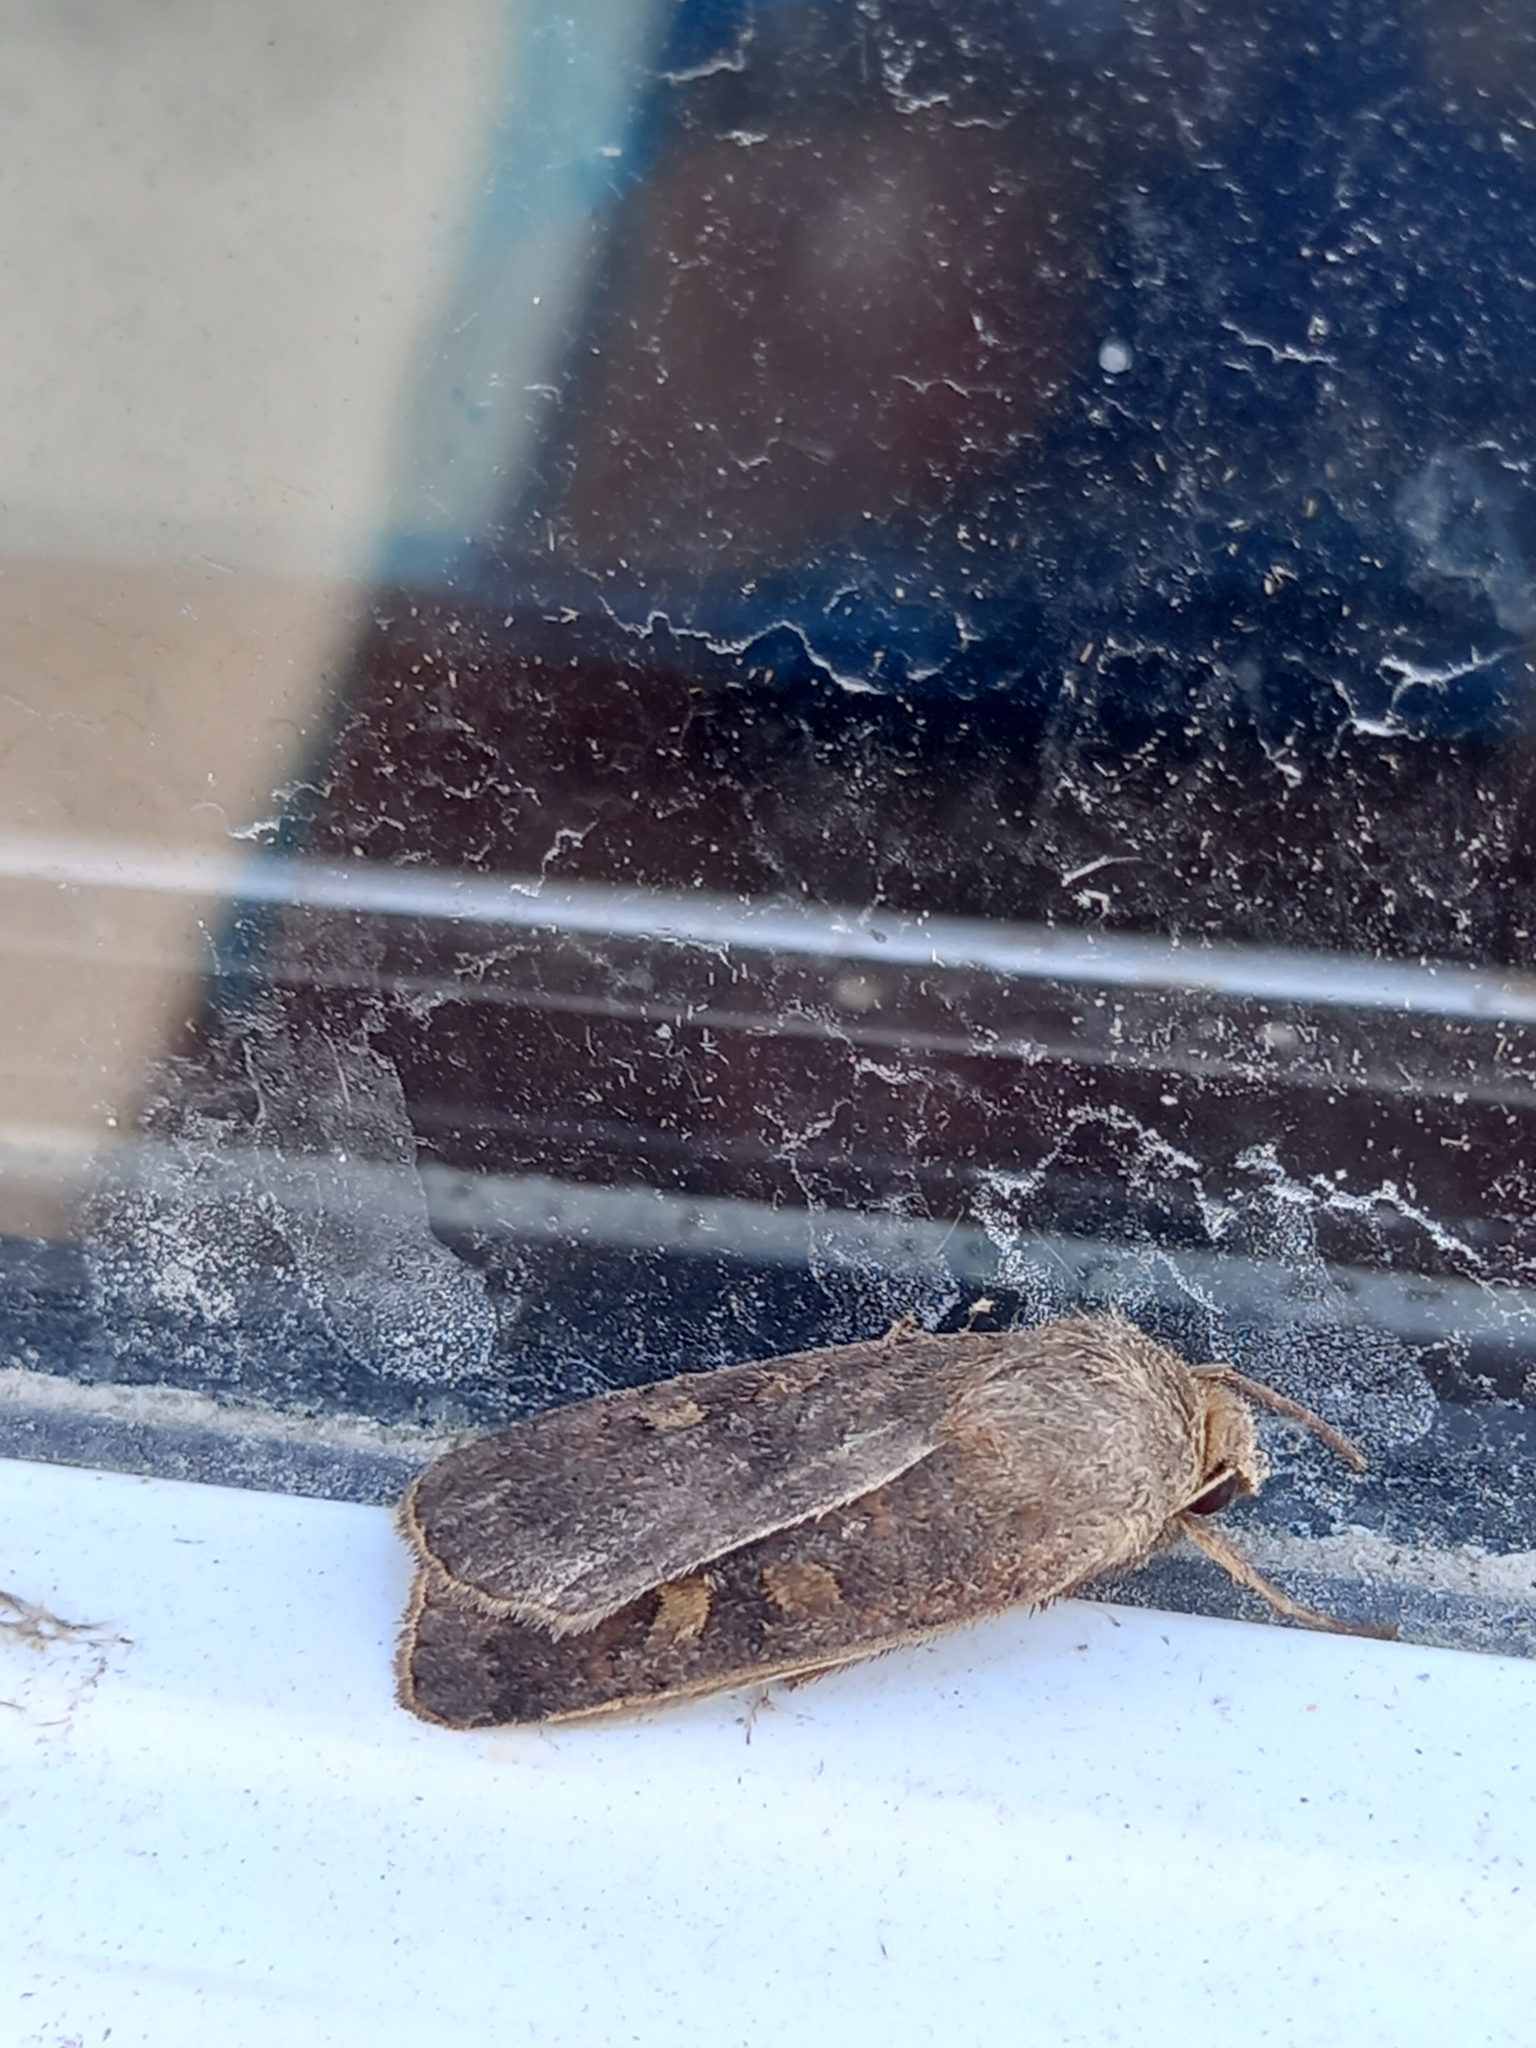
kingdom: Animalia
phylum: Arthropoda
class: Insecta
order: Lepidoptera
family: Noctuidae
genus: Xestia
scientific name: Xestia xanthographa
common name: Square-spot rustic
